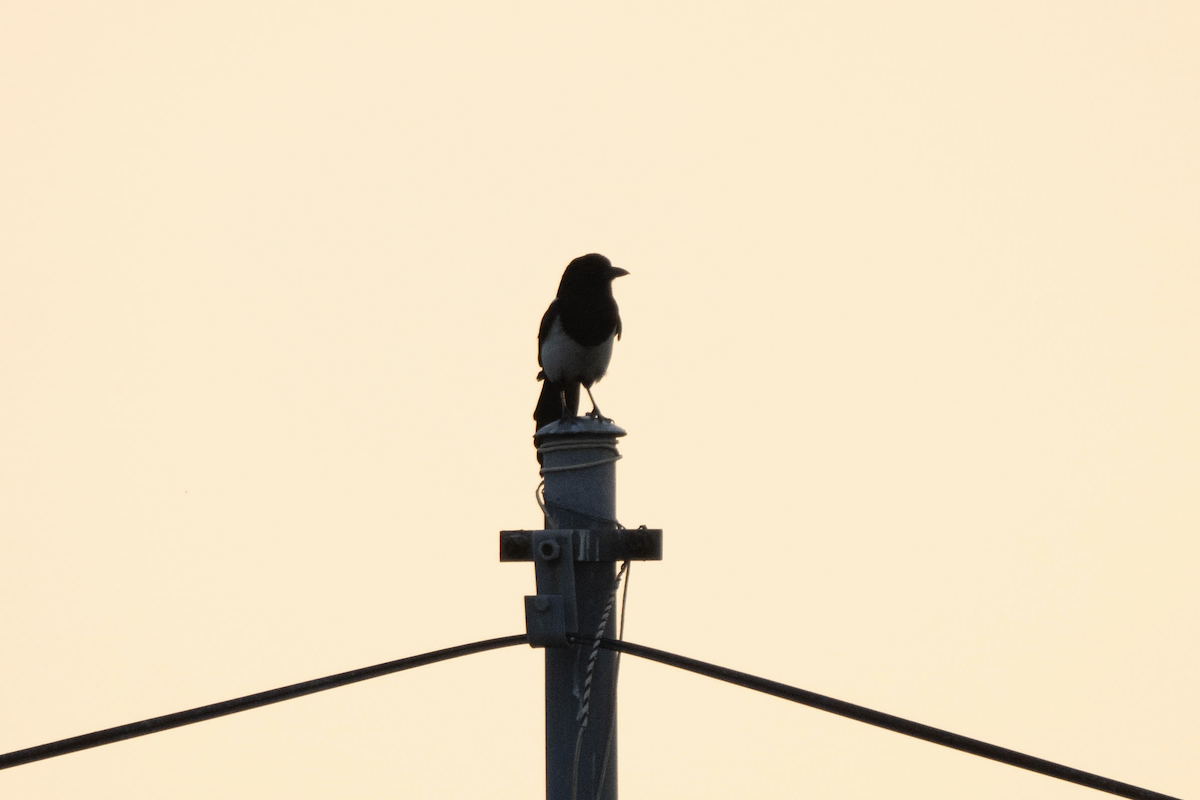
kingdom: Animalia
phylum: Chordata
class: Aves
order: Passeriformes
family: Corvidae
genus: Pica
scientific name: Pica serica
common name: Oriental magpie
